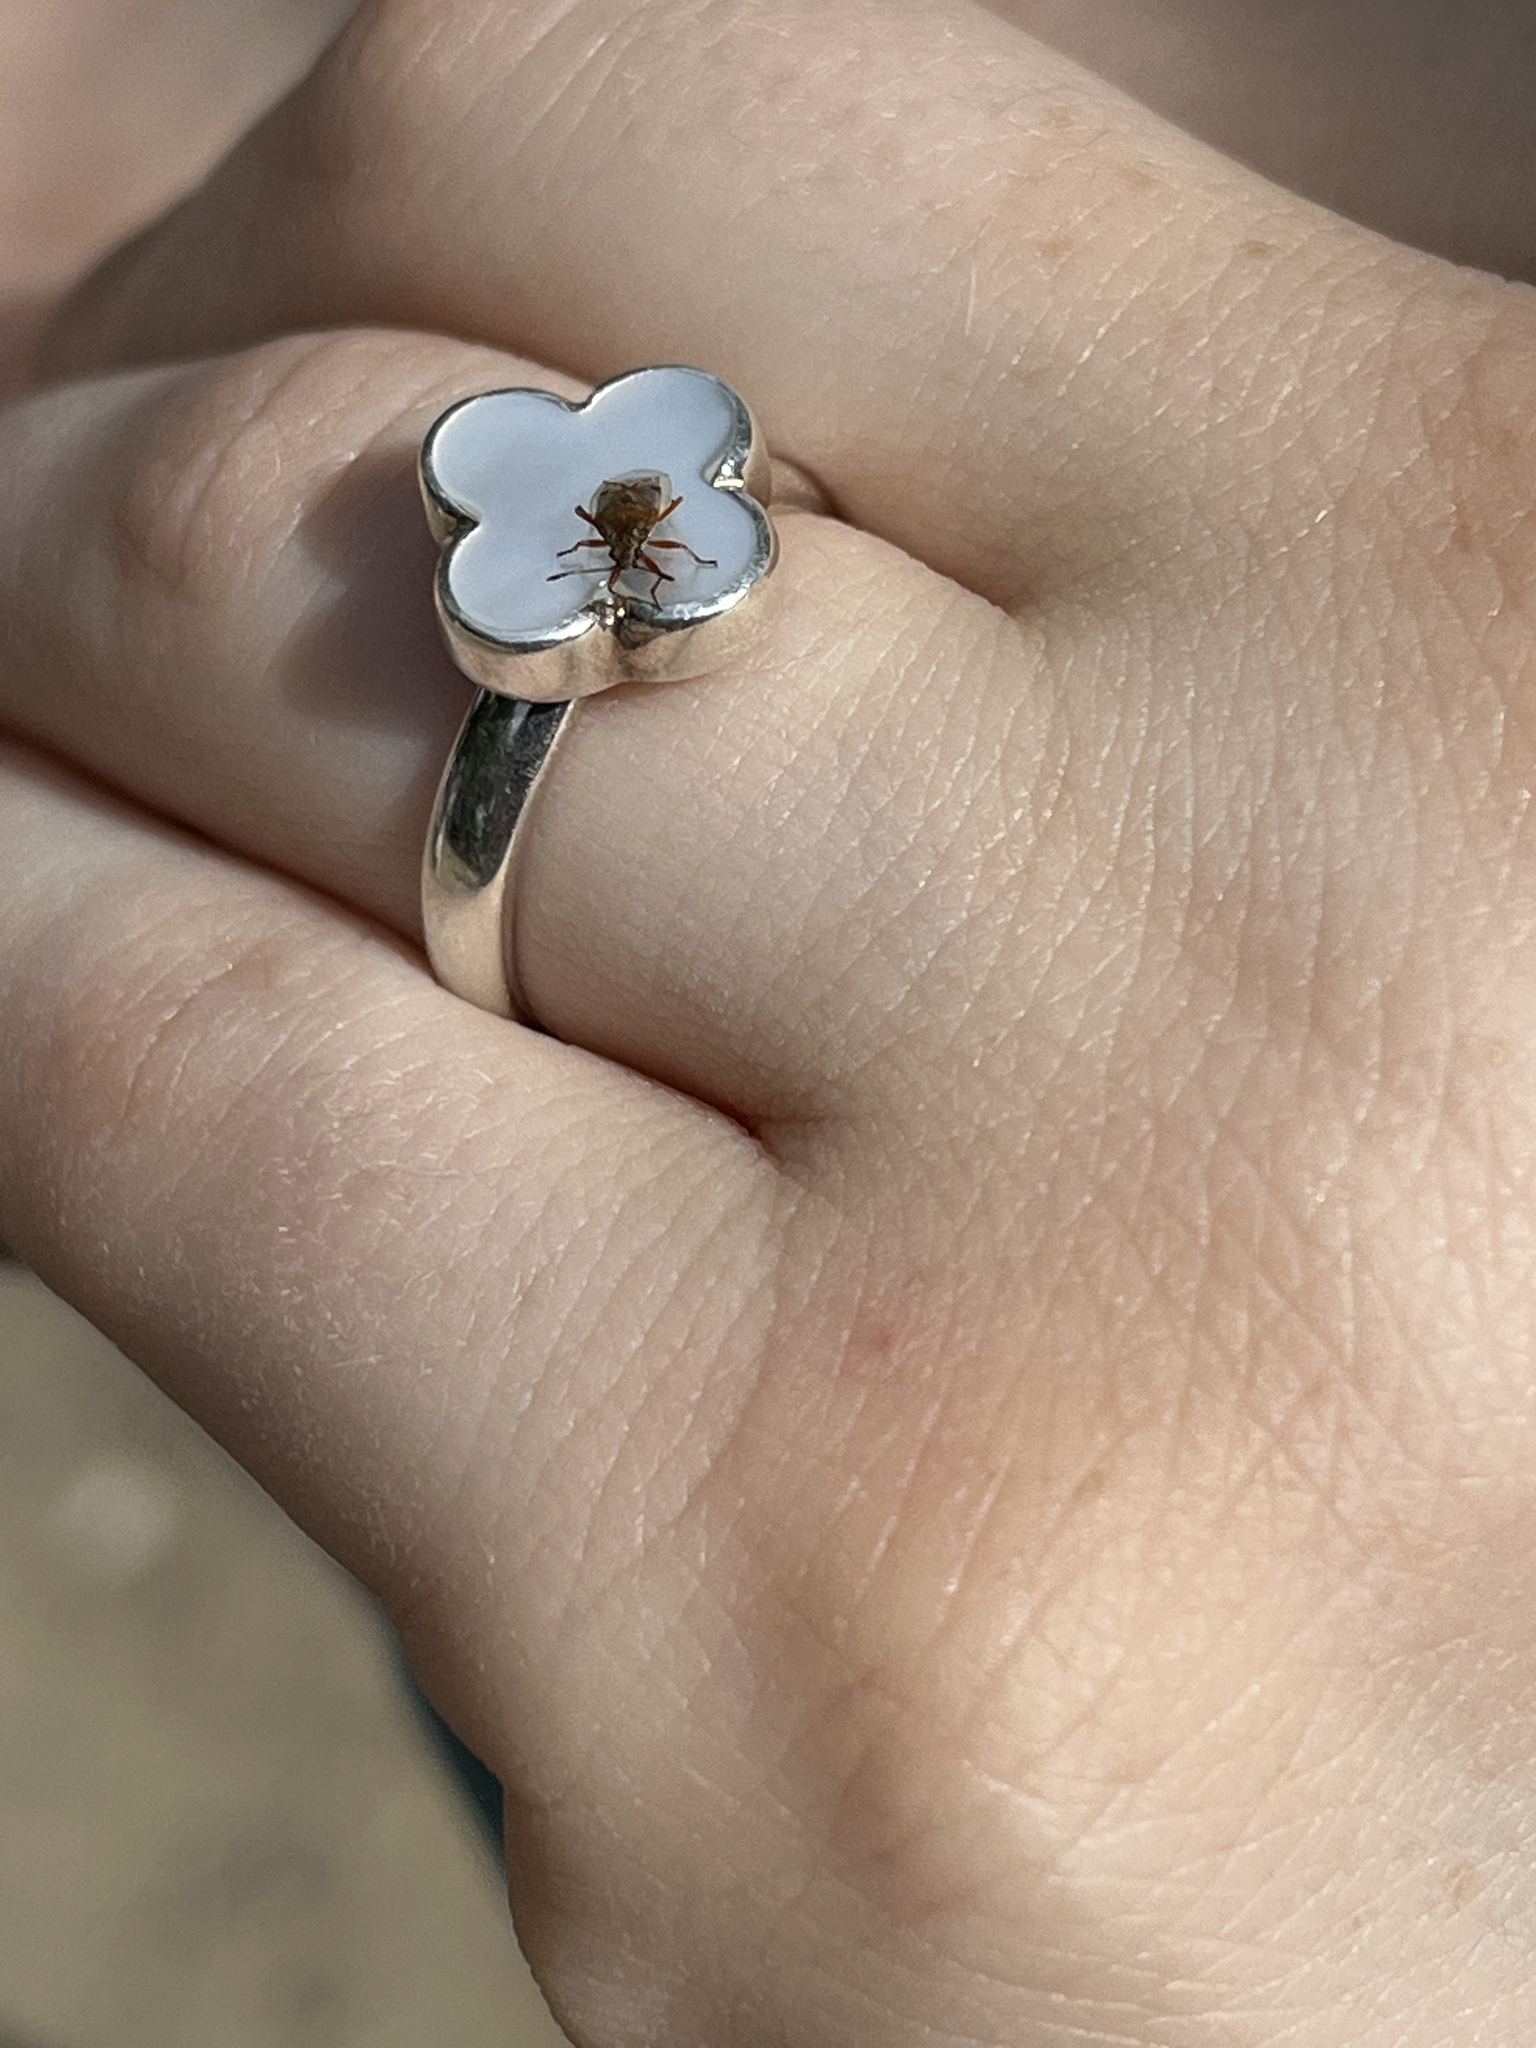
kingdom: Animalia
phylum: Arthropoda
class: Insecta
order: Hemiptera
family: Lygaeidae
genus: Kleidocerys
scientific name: Kleidocerys resedae
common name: Birch catkin bug
